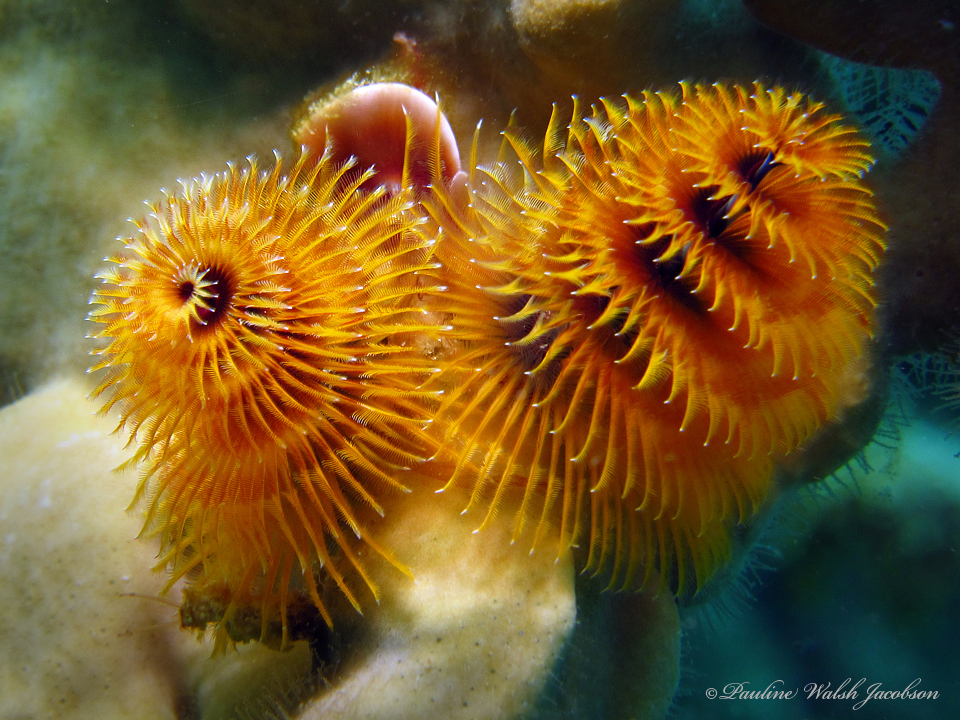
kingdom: Animalia
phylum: Annelida
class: Polychaeta
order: Sabellida
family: Serpulidae
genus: Spirobranchus
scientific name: Spirobranchus giganteus
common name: Christmas tree worm
